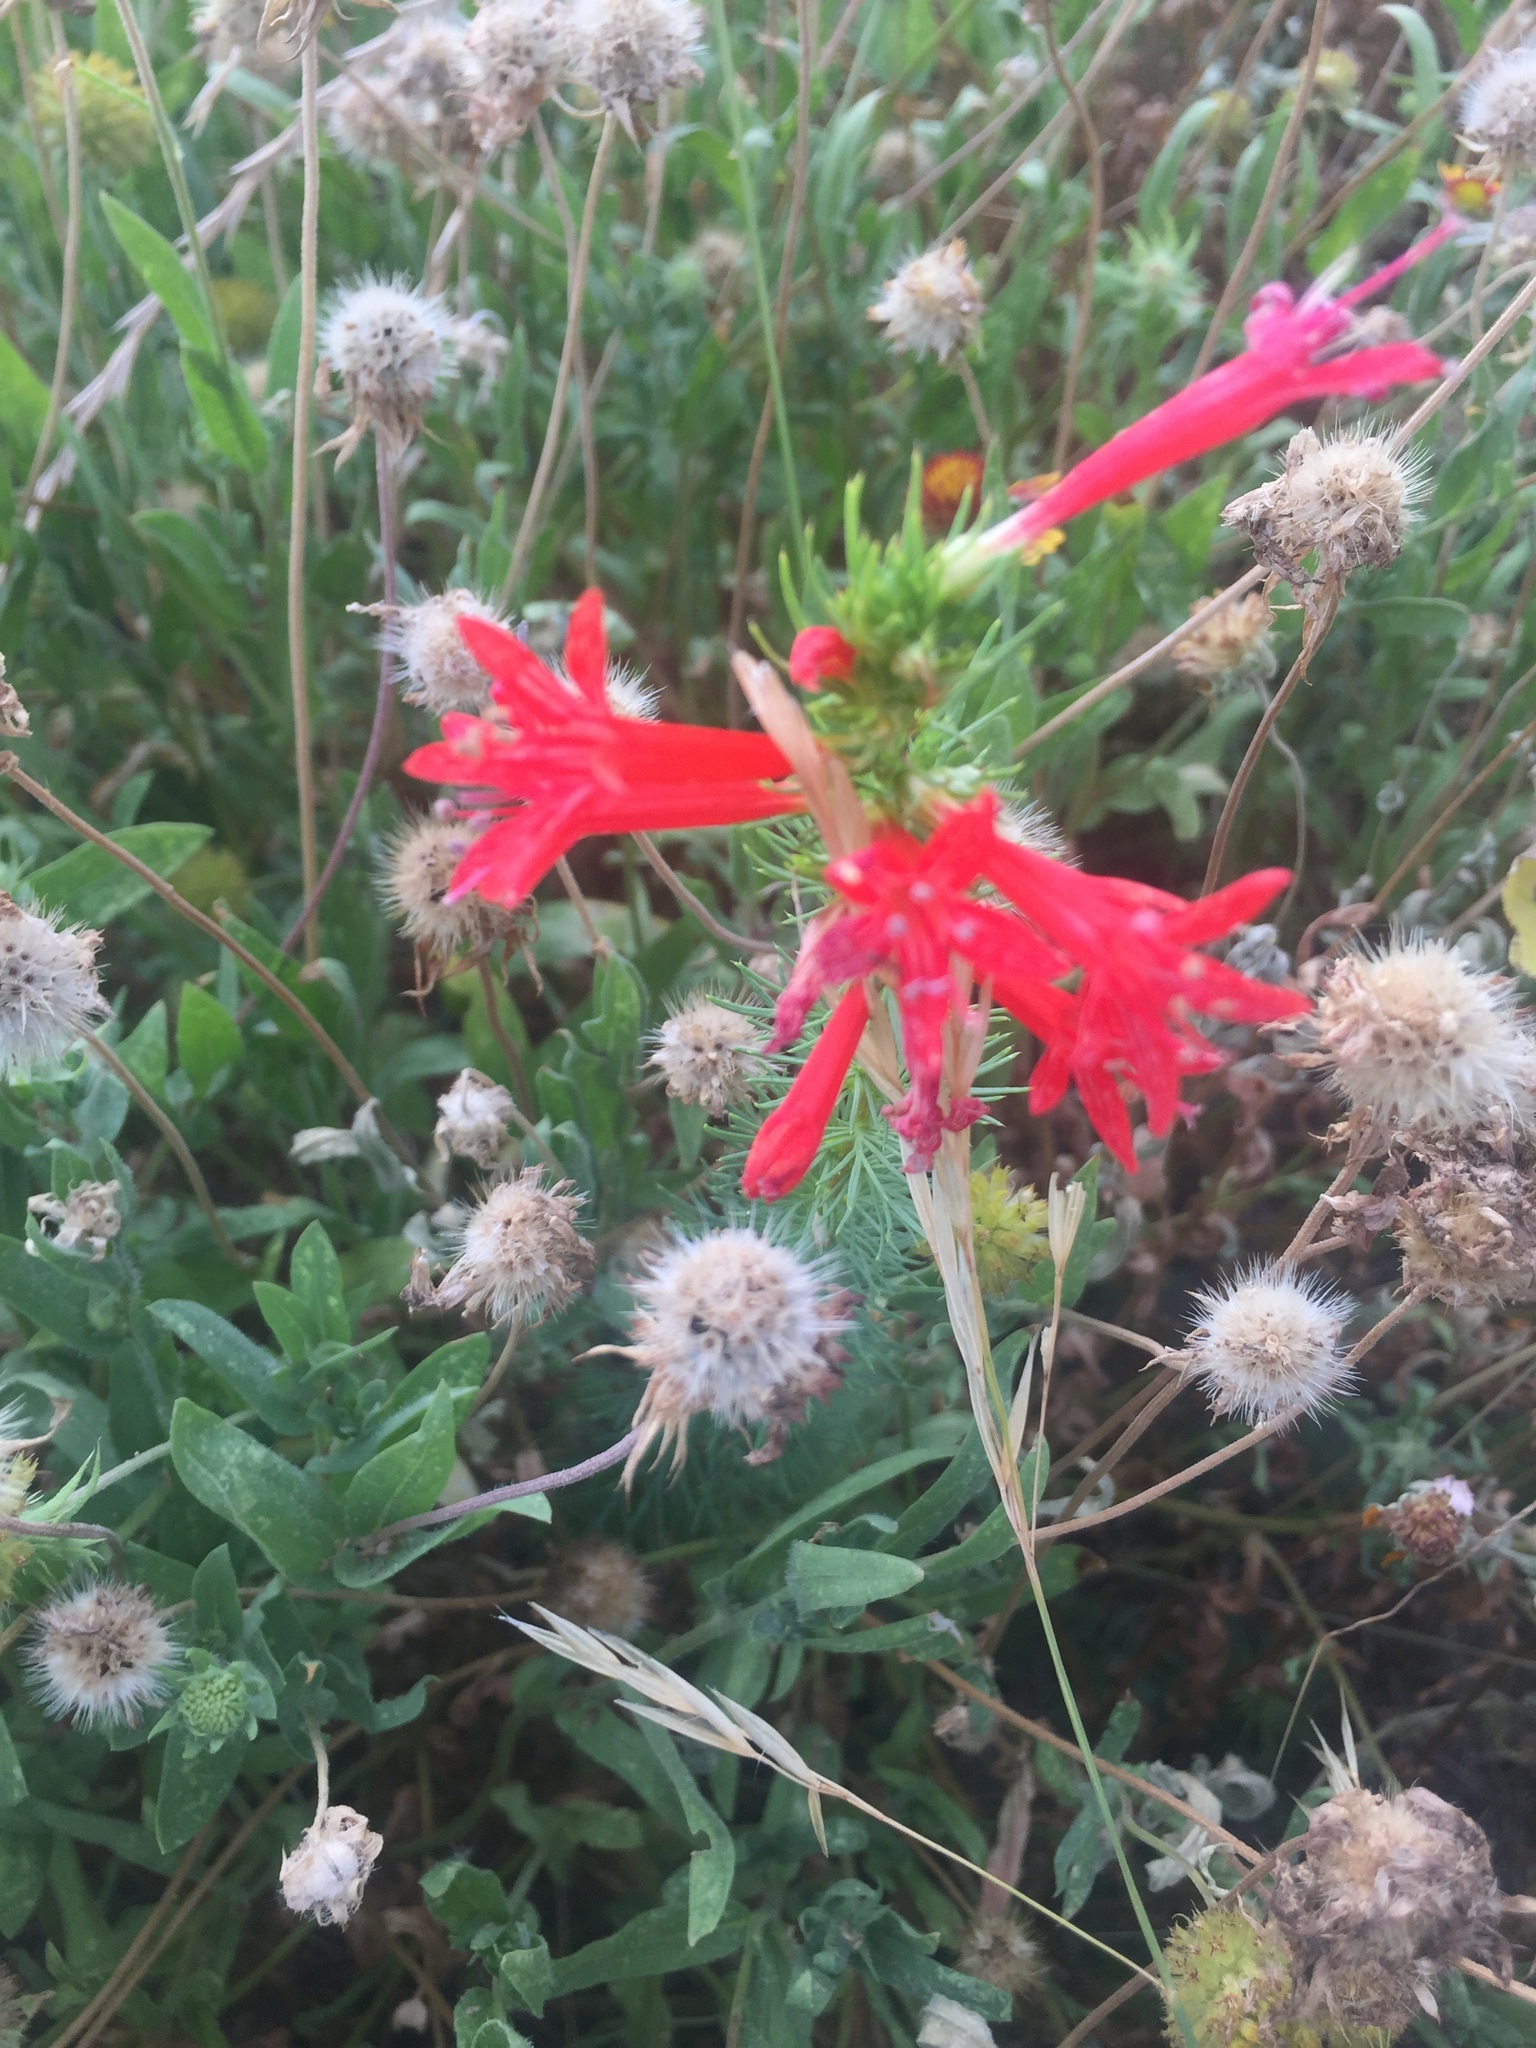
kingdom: Plantae
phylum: Tracheophyta
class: Magnoliopsida
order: Ericales
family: Polemoniaceae
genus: Ipomopsis
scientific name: Ipomopsis rubra
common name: Skyrocket
